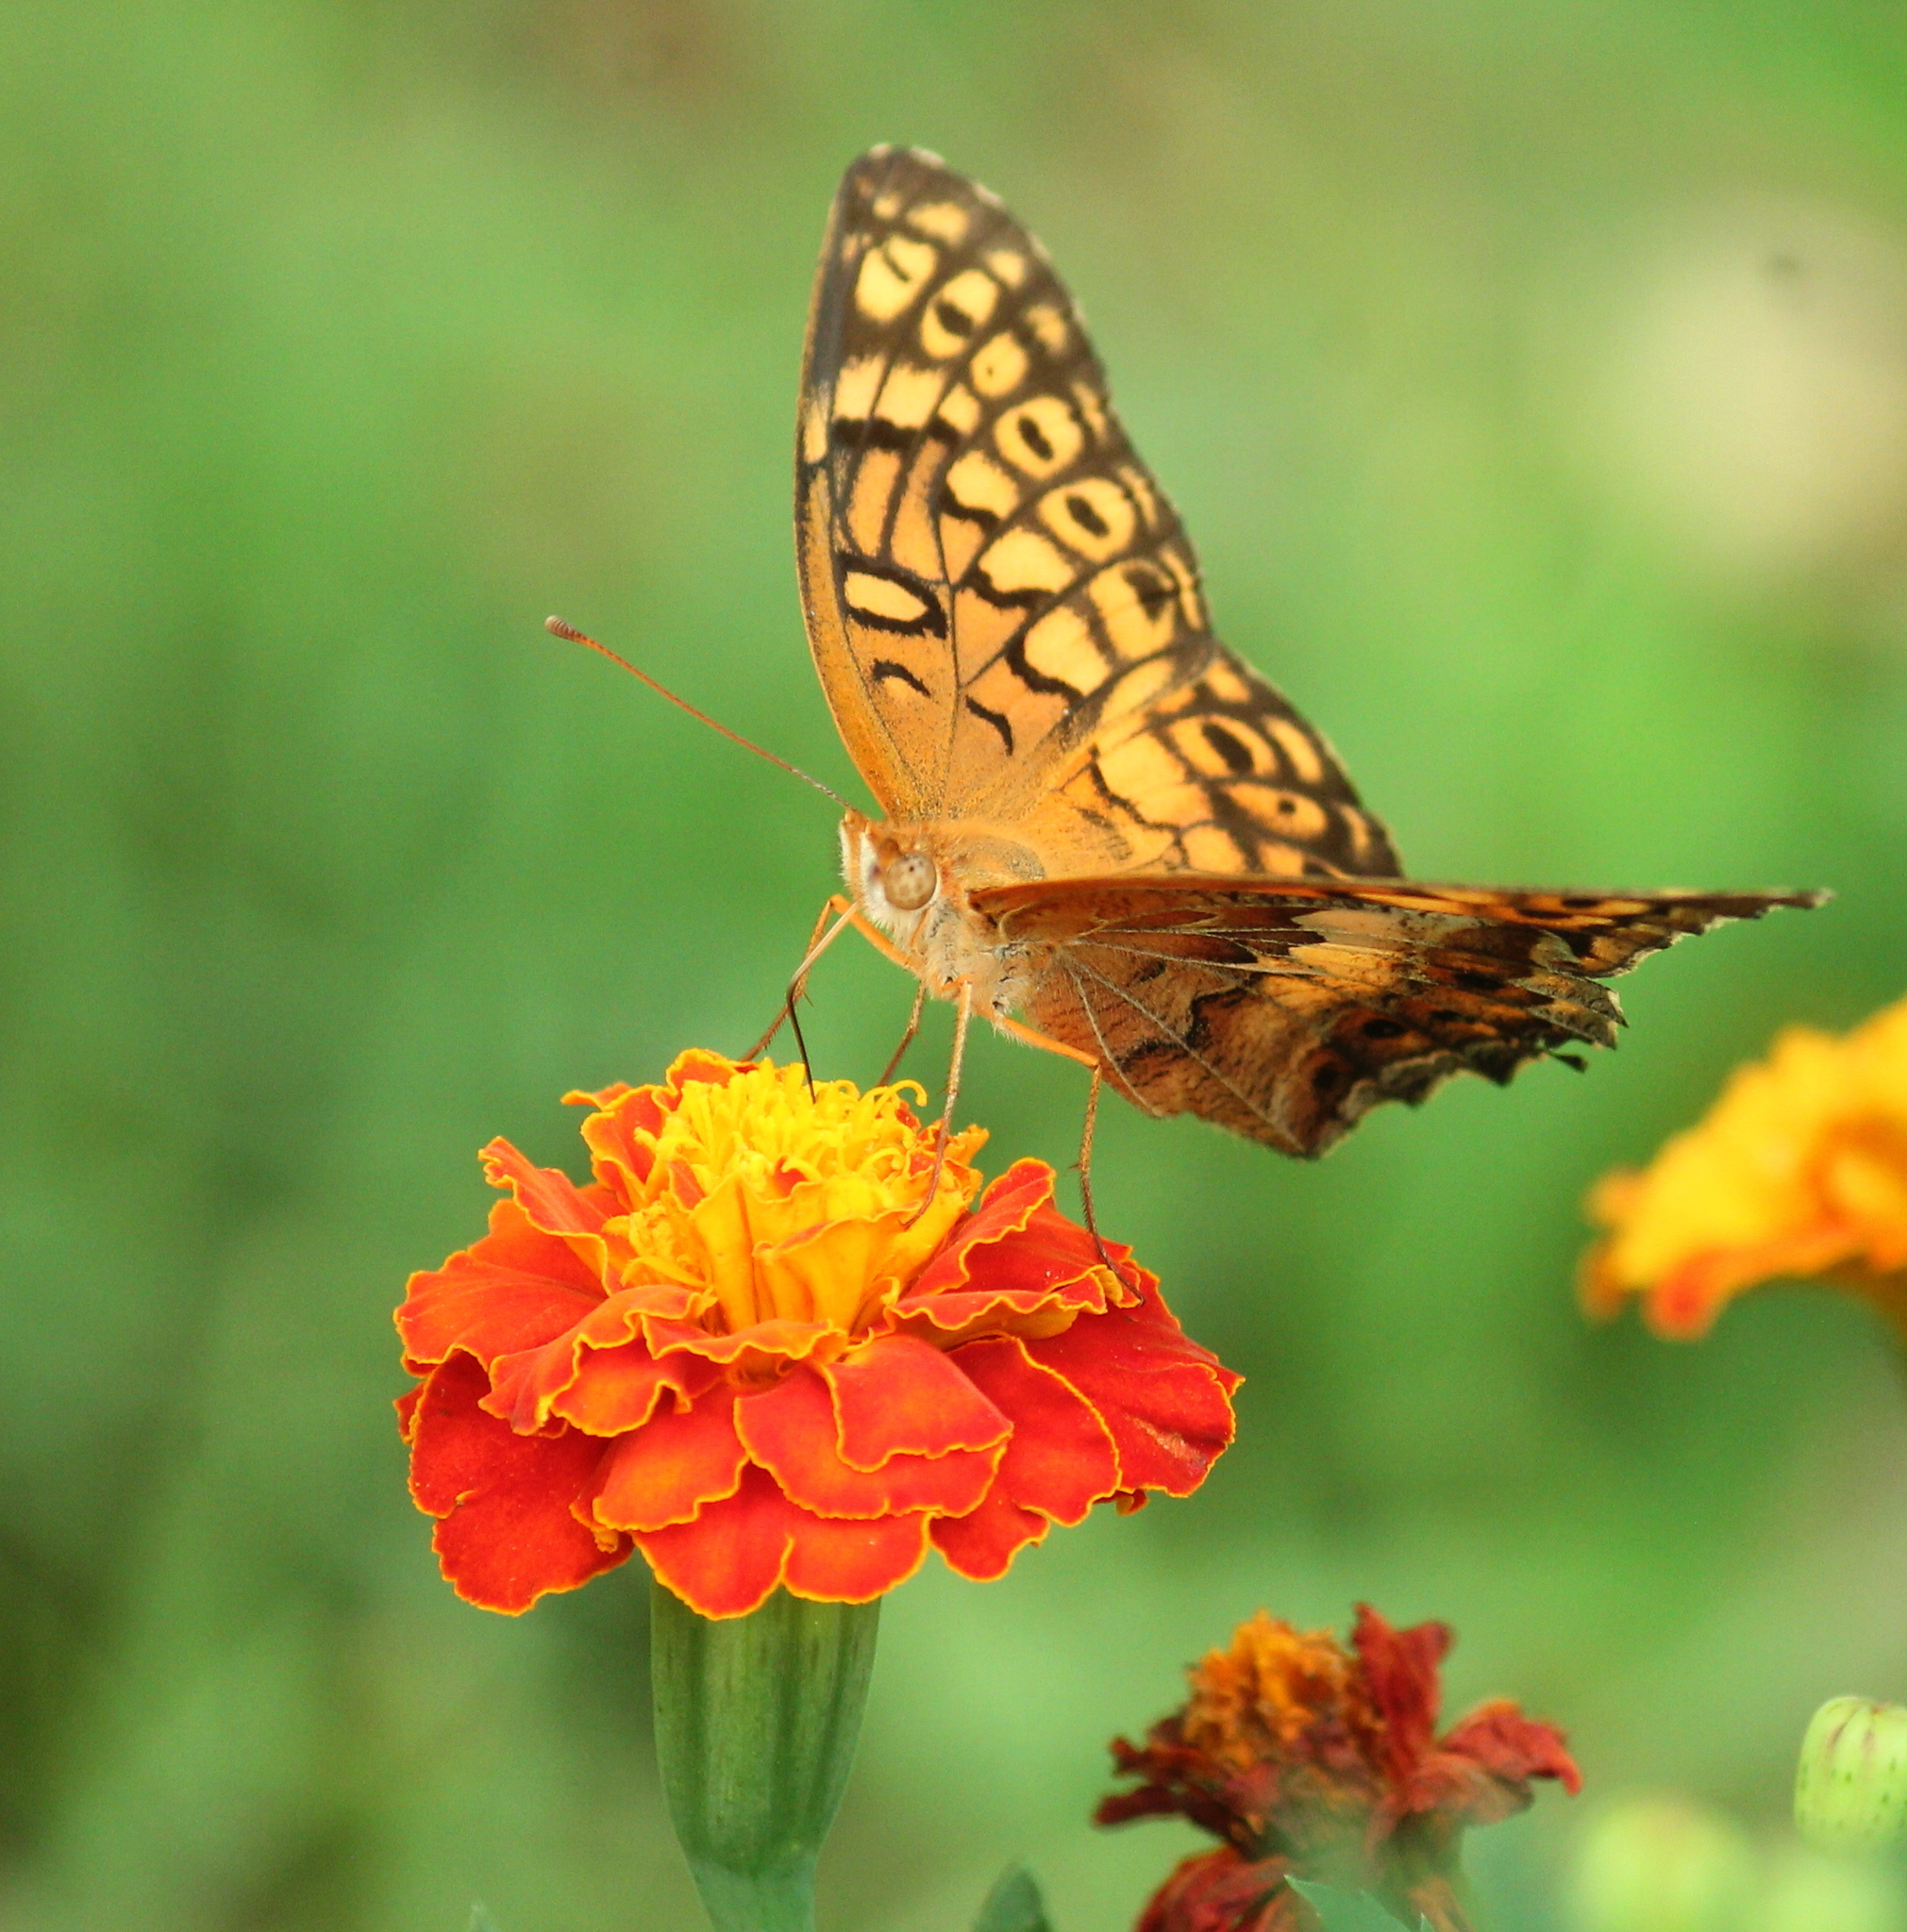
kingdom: Animalia
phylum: Arthropoda
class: Insecta
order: Lepidoptera
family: Nymphalidae
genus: Euptoieta
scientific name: Euptoieta claudia
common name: Variegated fritillary
